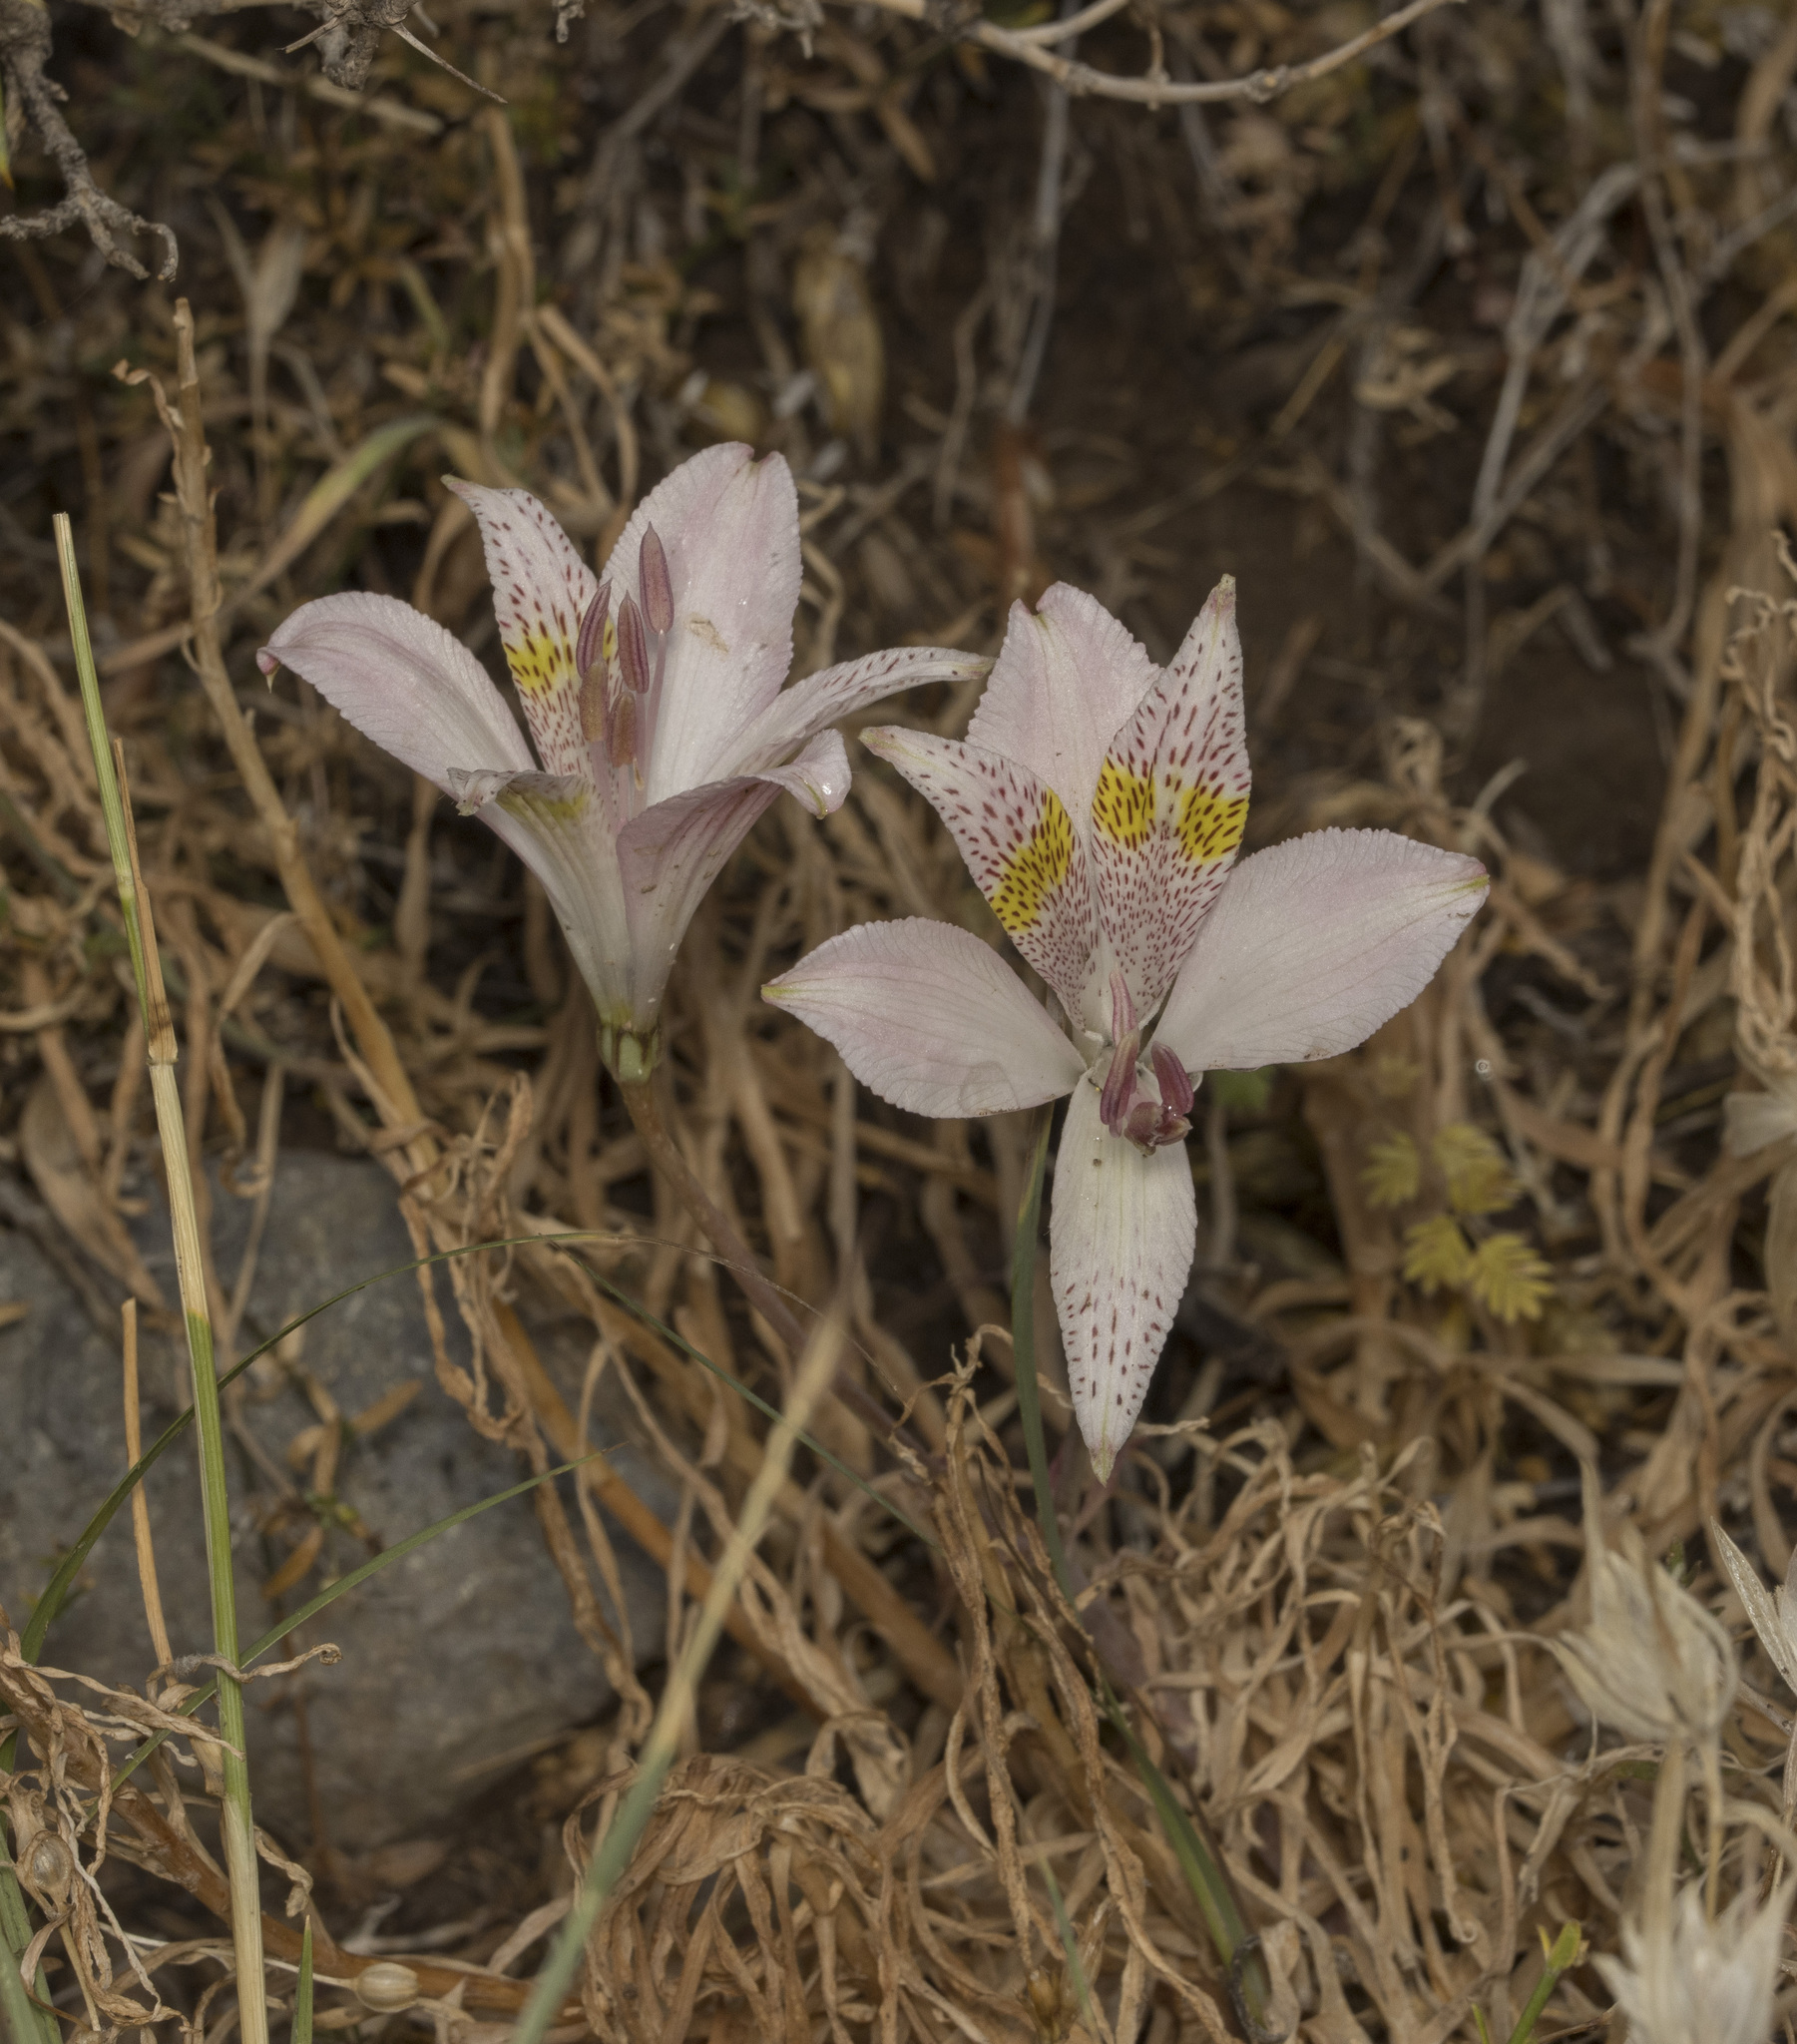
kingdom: Plantae
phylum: Tracheophyta
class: Liliopsida
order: Liliales
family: Alstroemeriaceae
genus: Alstroemeria
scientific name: Alstroemeria pallida
